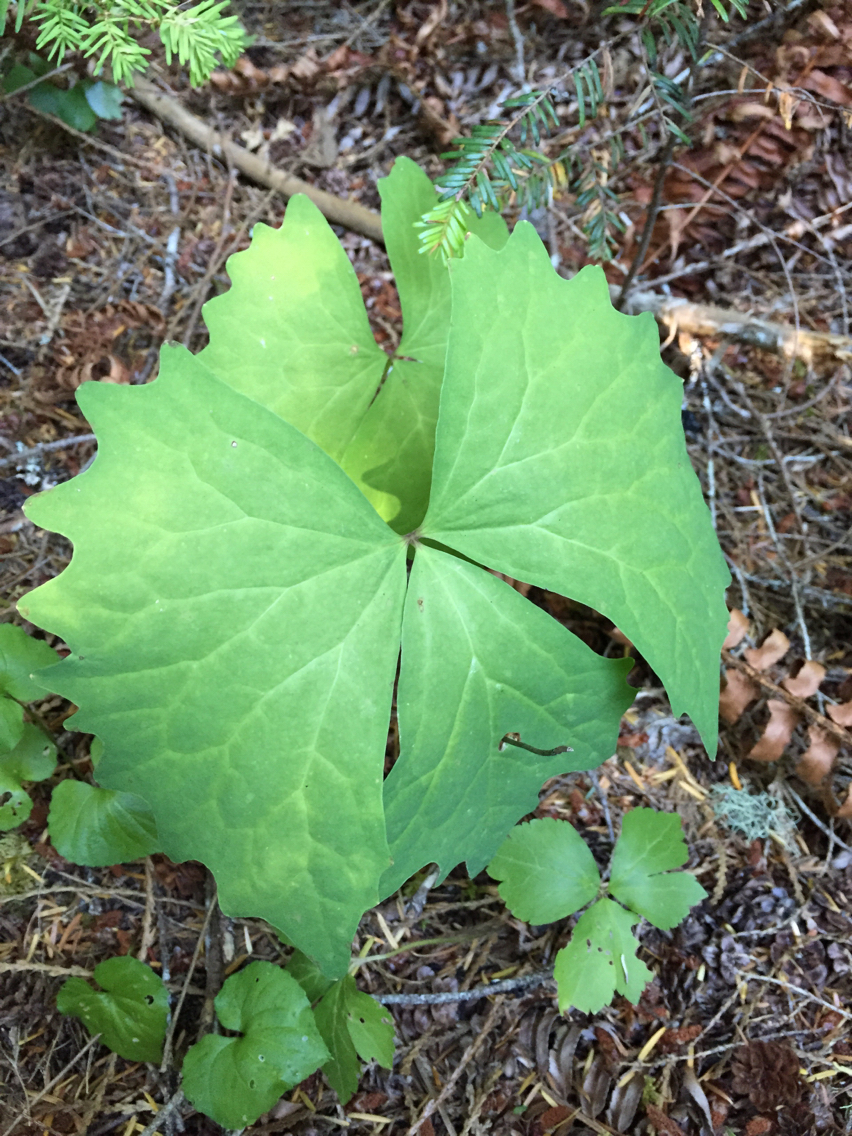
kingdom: Plantae
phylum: Tracheophyta
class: Magnoliopsida
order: Ranunculales
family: Berberidaceae
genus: Achlys
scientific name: Achlys triphylla
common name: Vanilla-leaf
